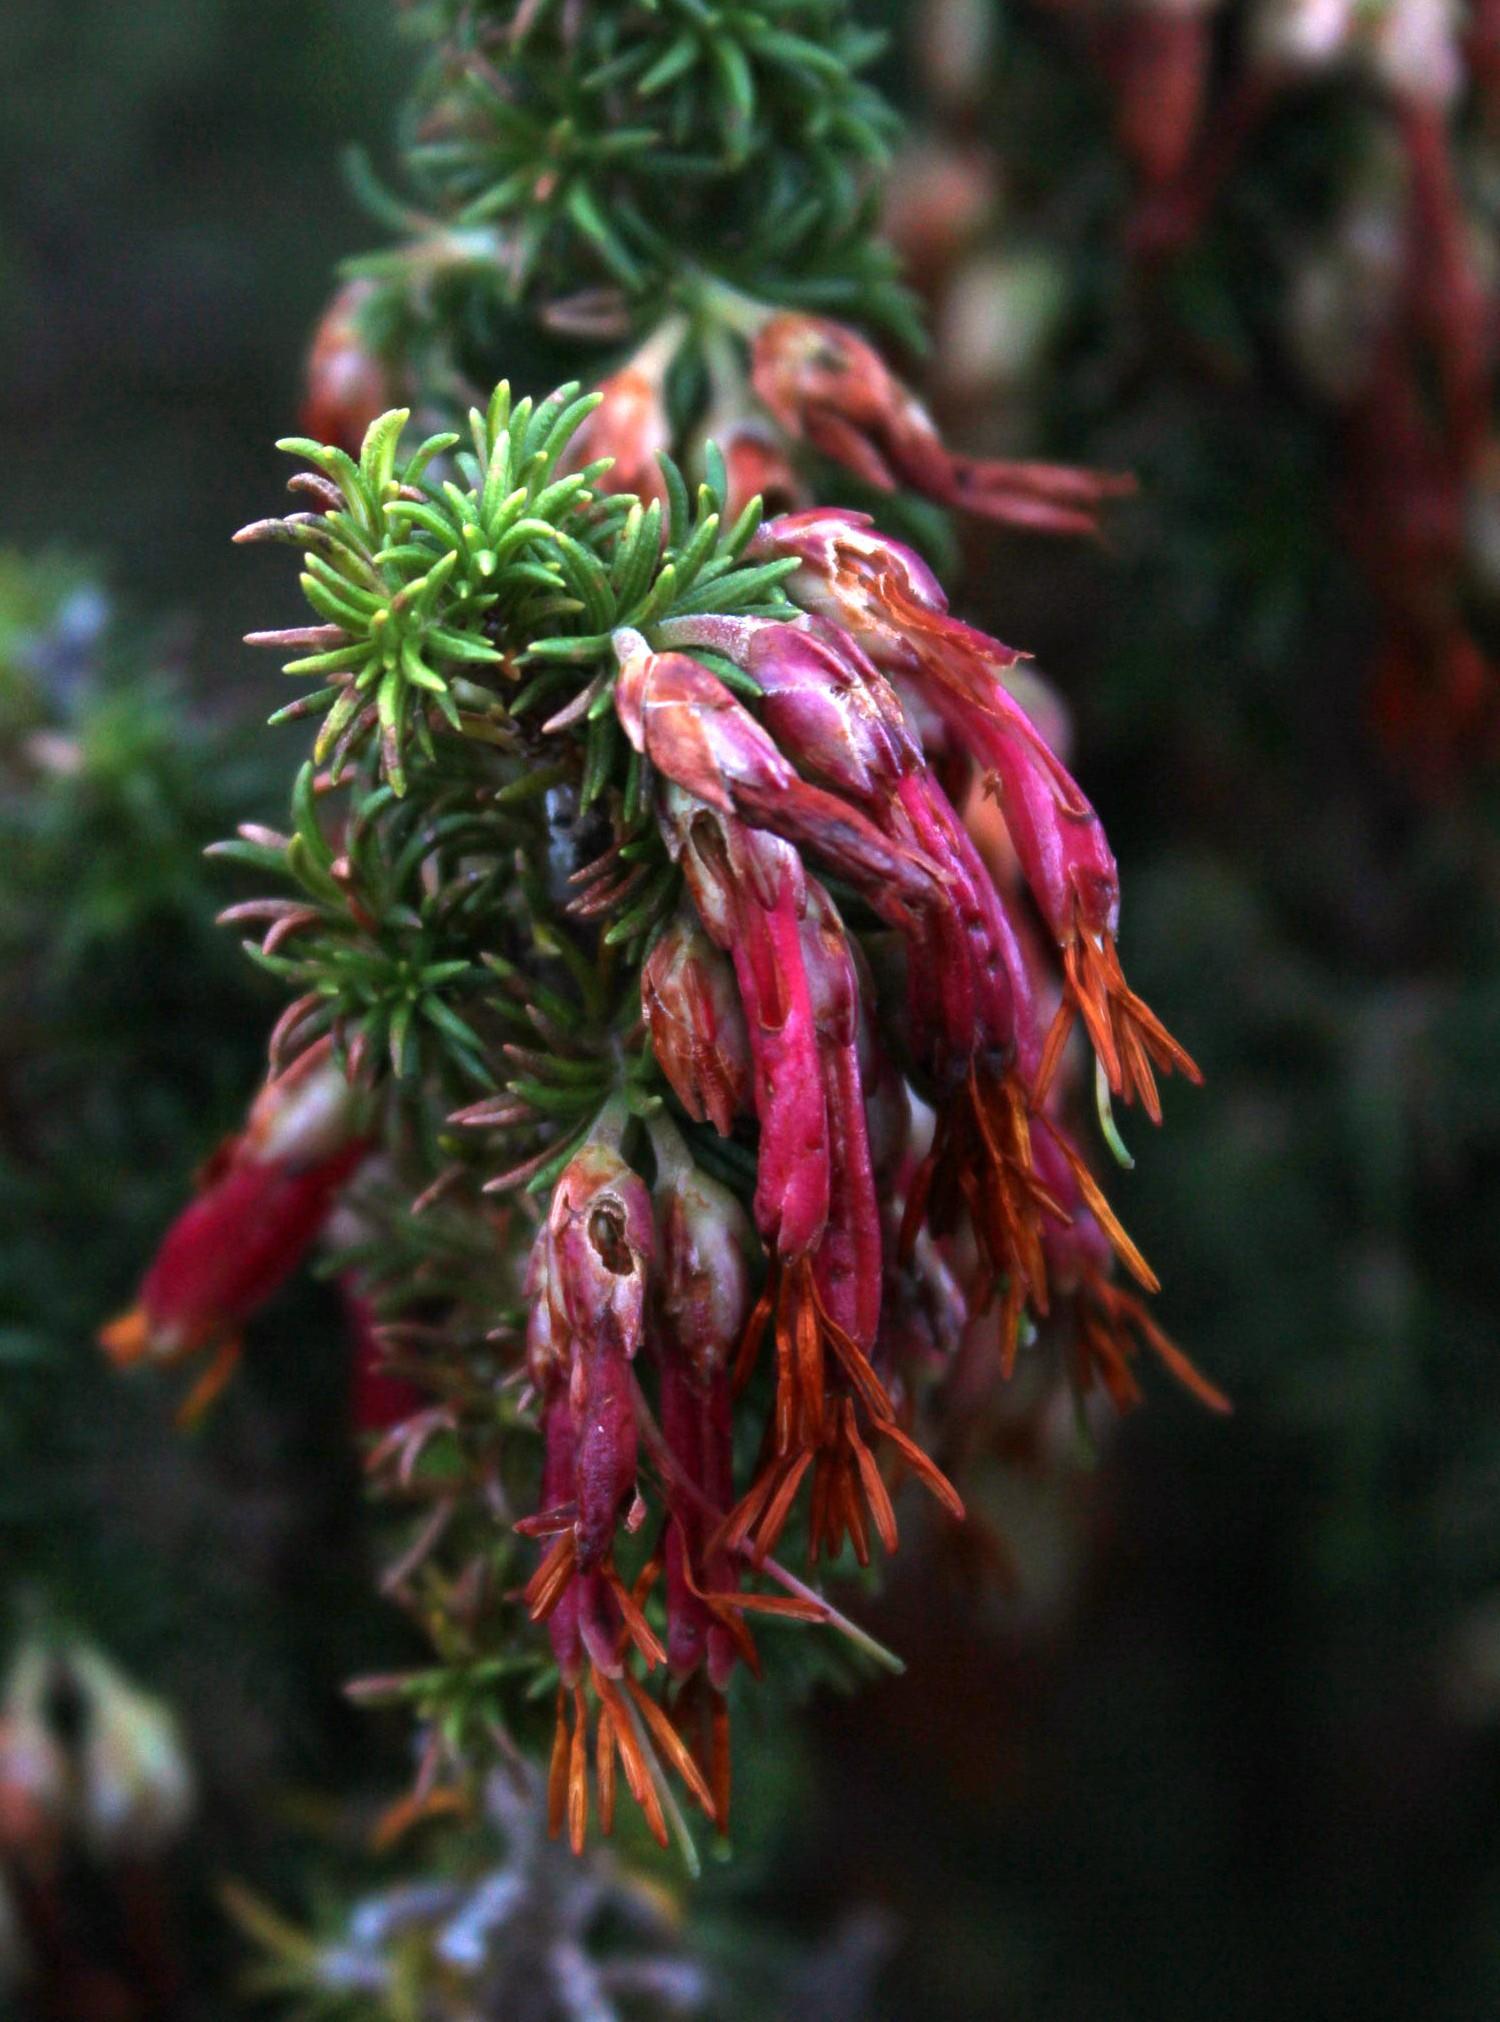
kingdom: Plantae
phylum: Tracheophyta
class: Magnoliopsida
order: Ericales
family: Ericaceae
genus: Erica
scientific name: Erica coccinea
